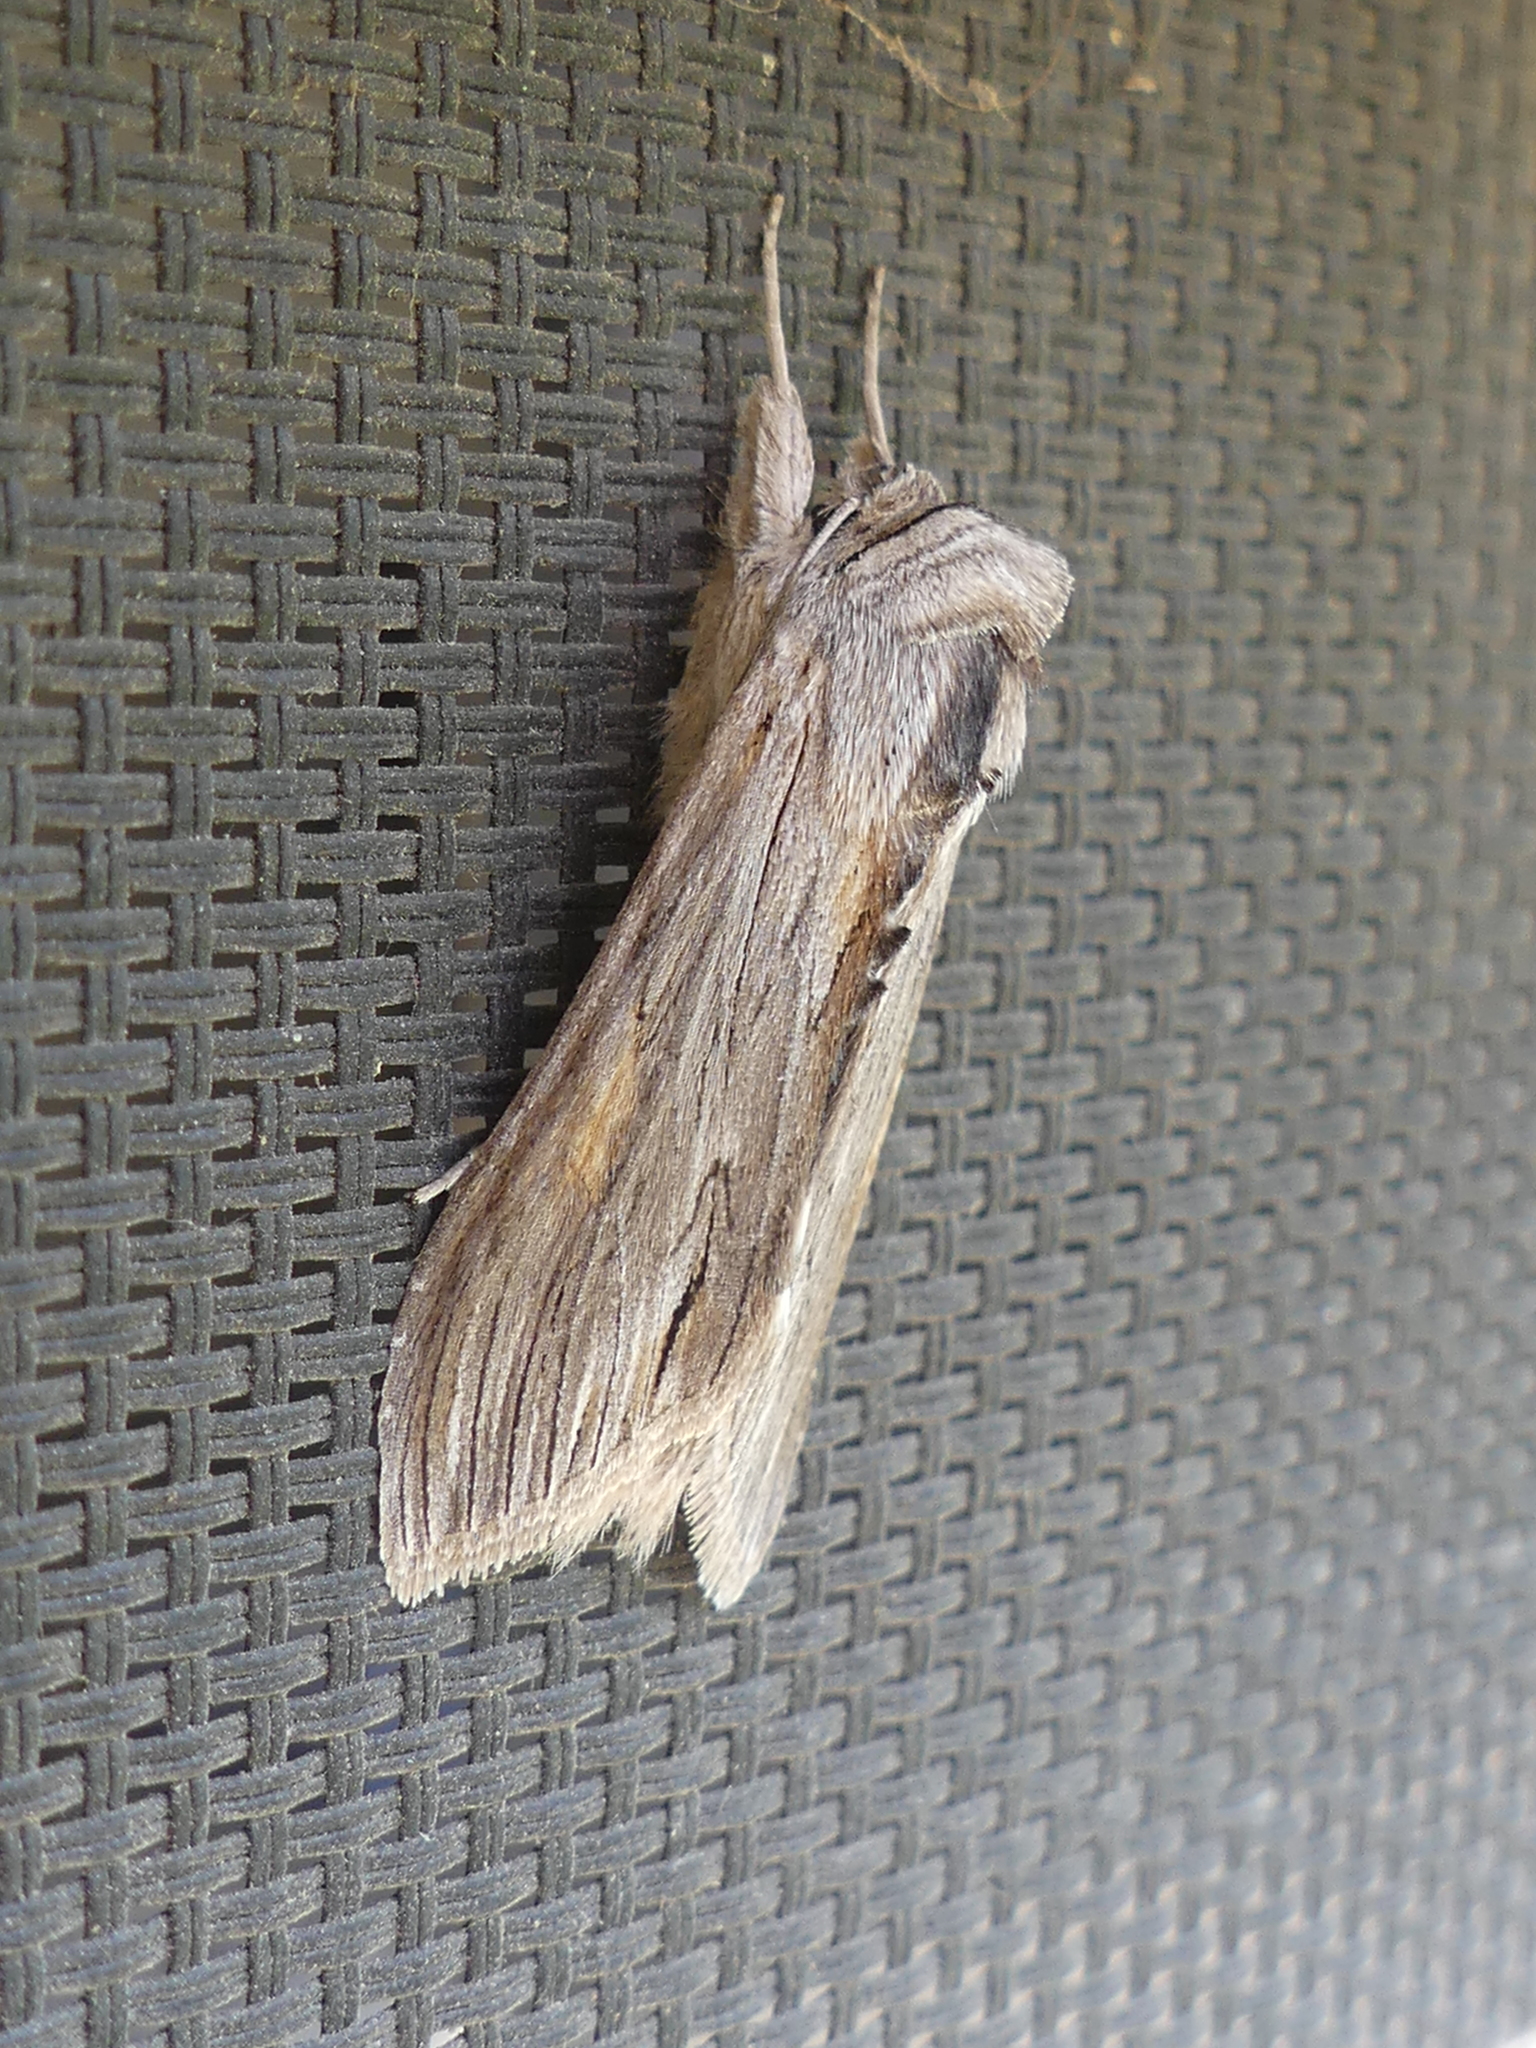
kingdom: Animalia
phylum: Arthropoda
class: Insecta
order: Lepidoptera
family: Noctuidae
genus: Cucullia
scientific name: Cucullia lethe
